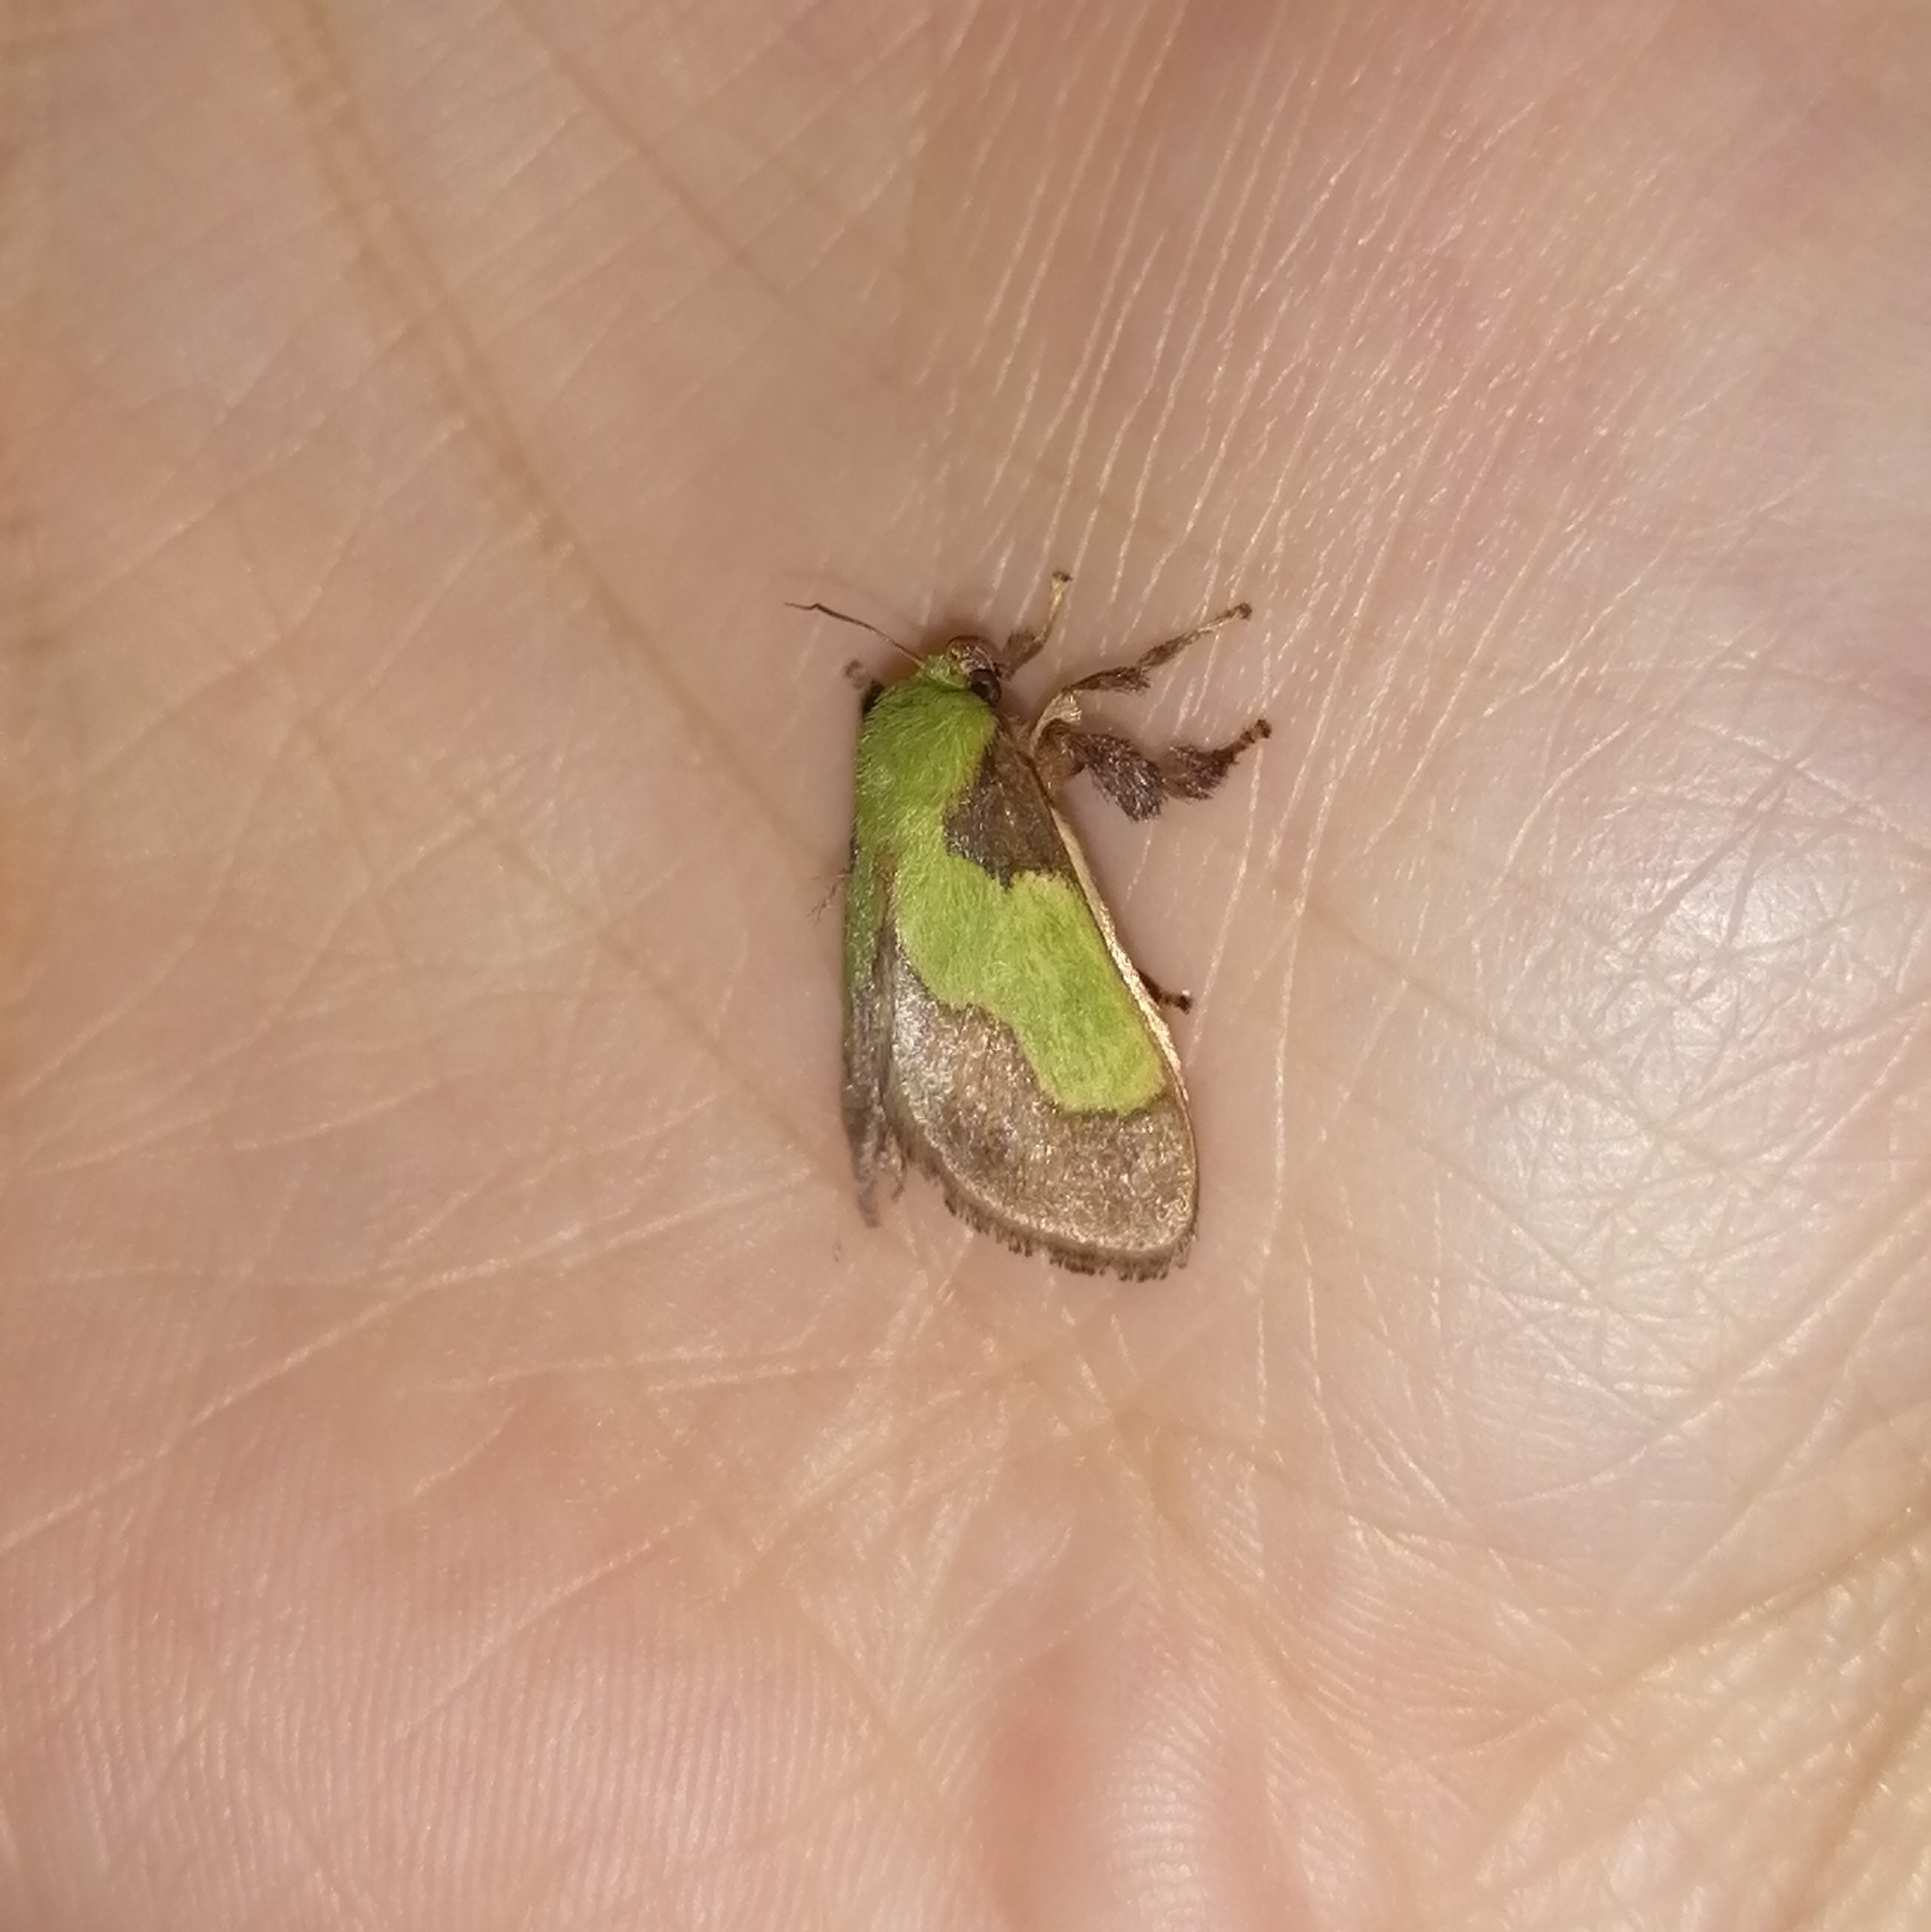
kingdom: Animalia
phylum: Arthropoda
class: Insecta
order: Lepidoptera
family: Limacodidae
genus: Aergina
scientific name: Aergina hilaris
